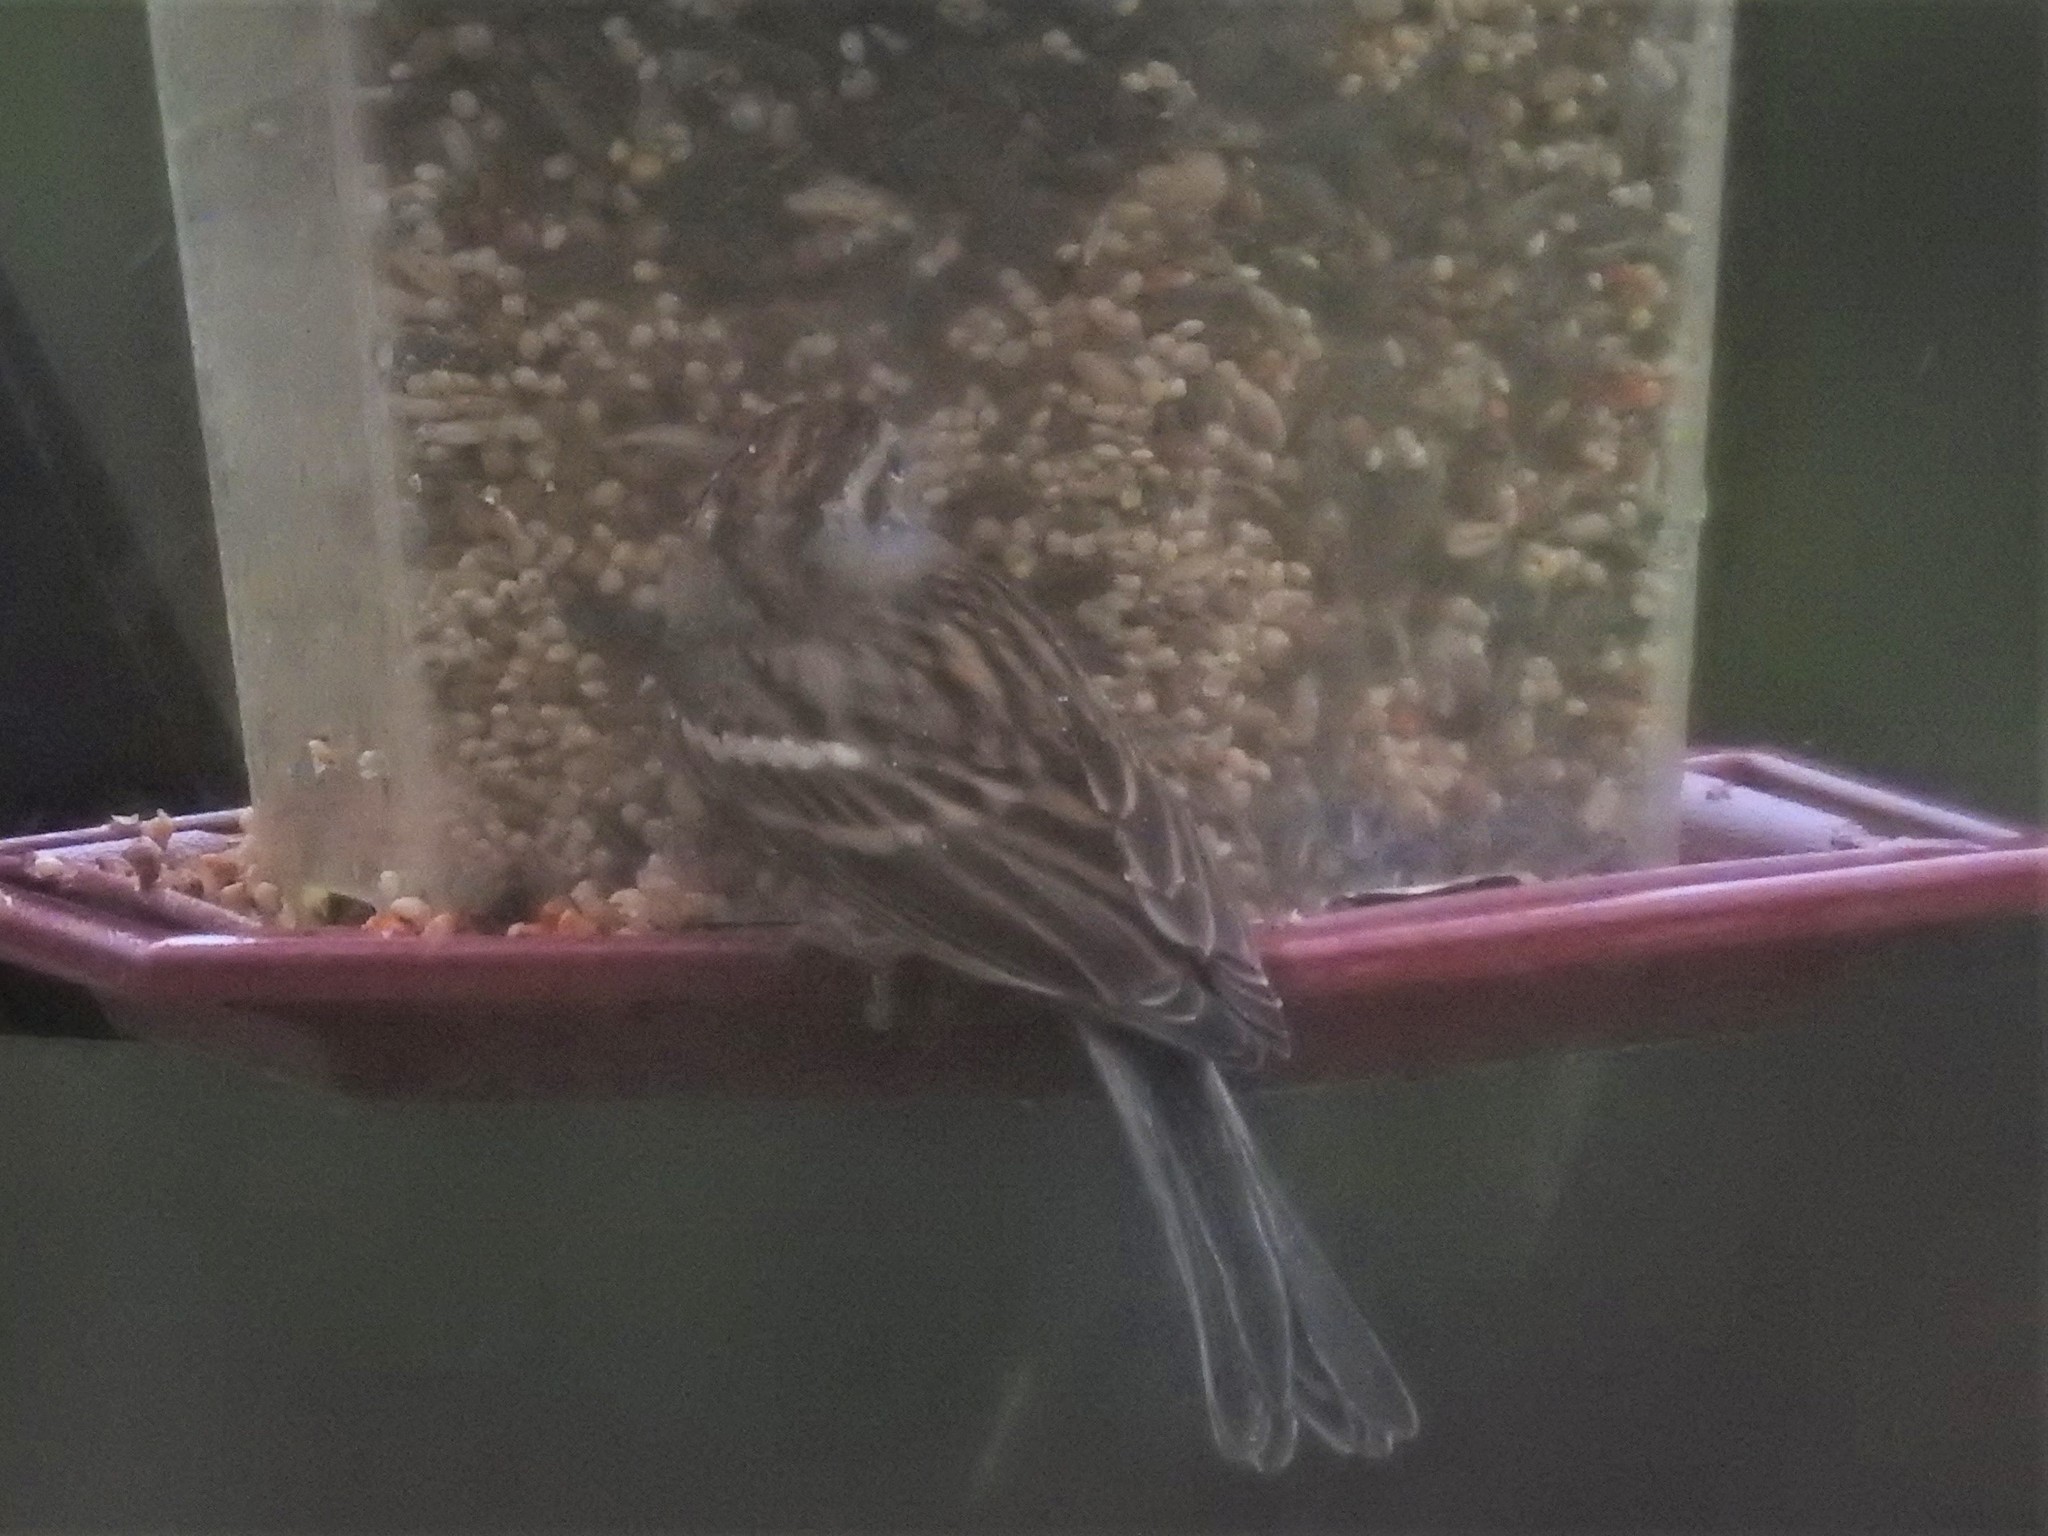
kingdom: Animalia
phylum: Chordata
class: Aves
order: Passeriformes
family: Passerellidae
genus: Spizella
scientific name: Spizella passerina
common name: Chipping sparrow
